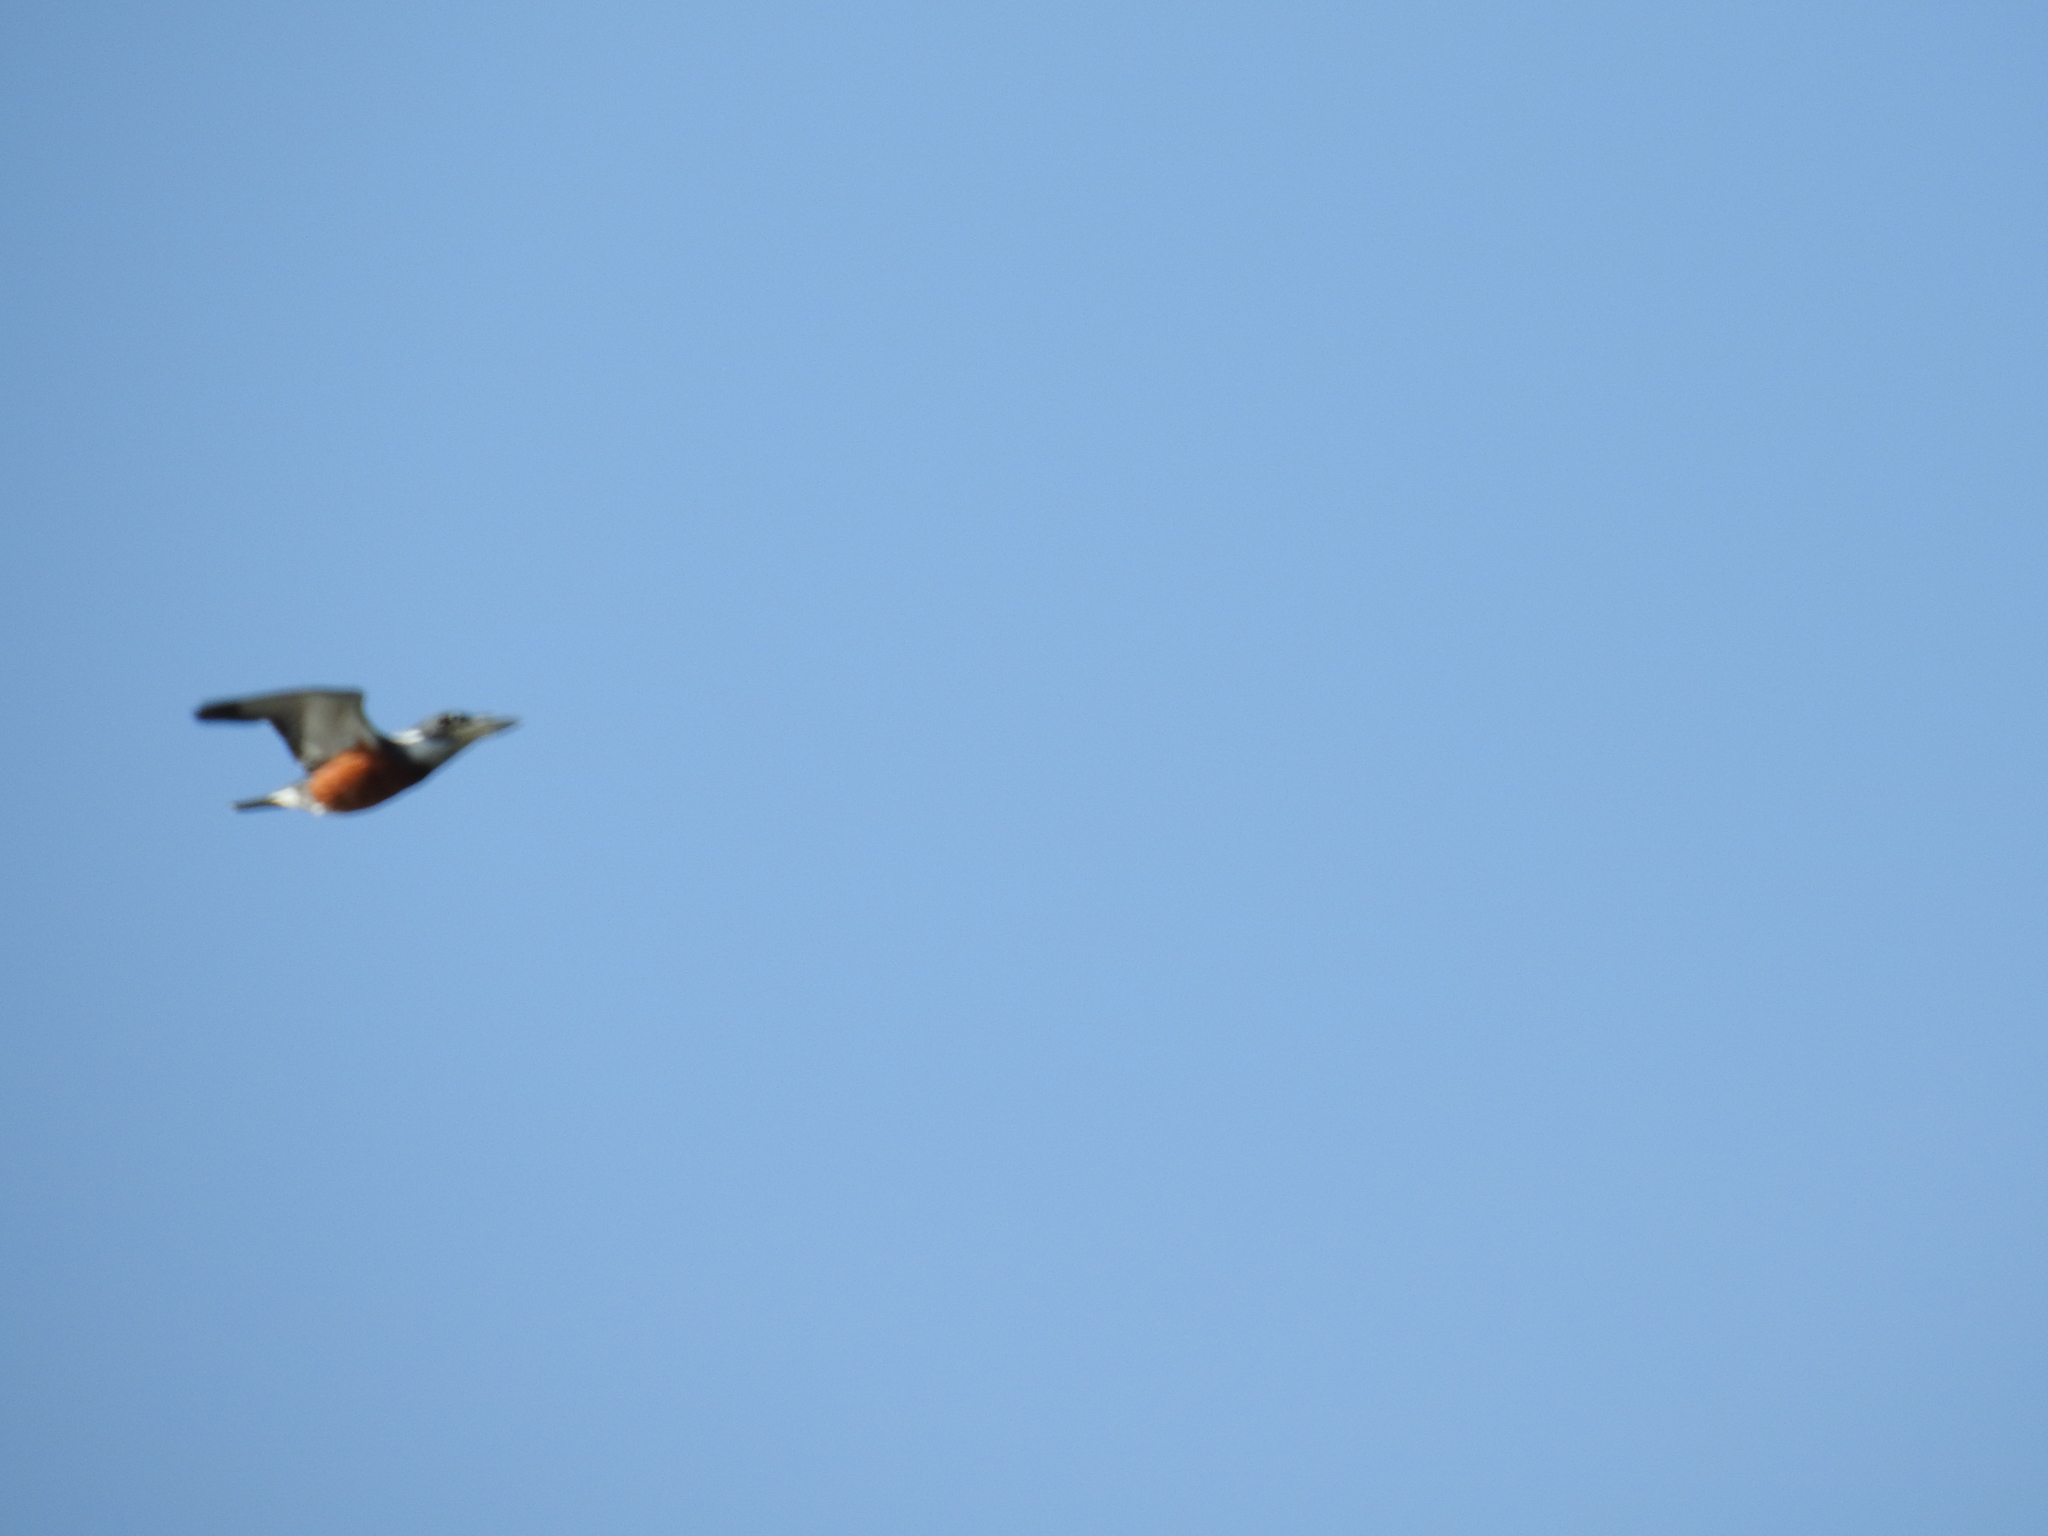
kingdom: Animalia
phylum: Chordata
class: Aves
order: Coraciiformes
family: Alcedinidae
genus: Megaceryle
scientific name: Megaceryle torquata
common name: Ringed kingfisher
